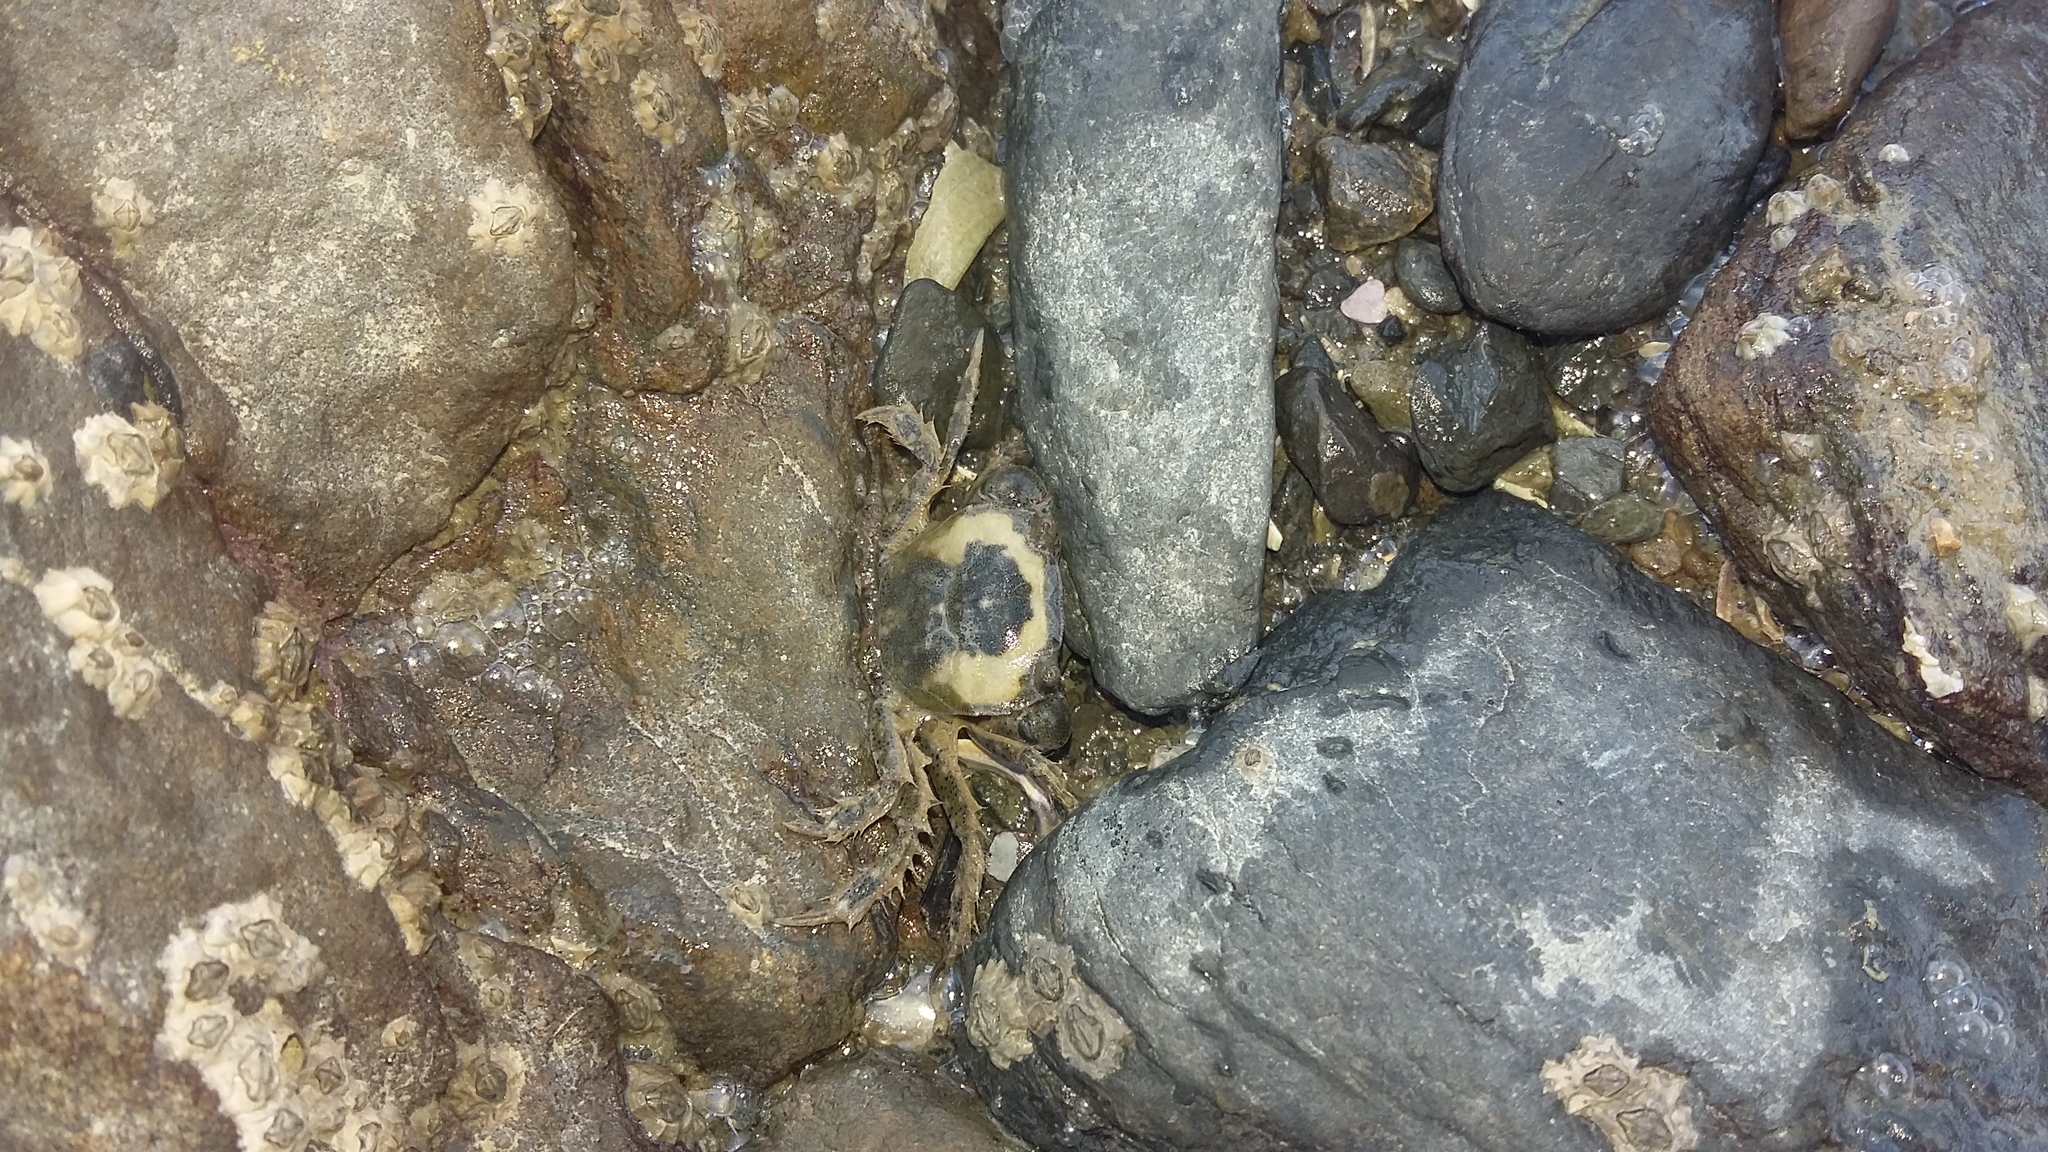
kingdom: Animalia
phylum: Arthropoda
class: Malacostraca
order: Decapoda
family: Varunidae
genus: Hemigrapsus
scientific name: Hemigrapsus crenulatus
